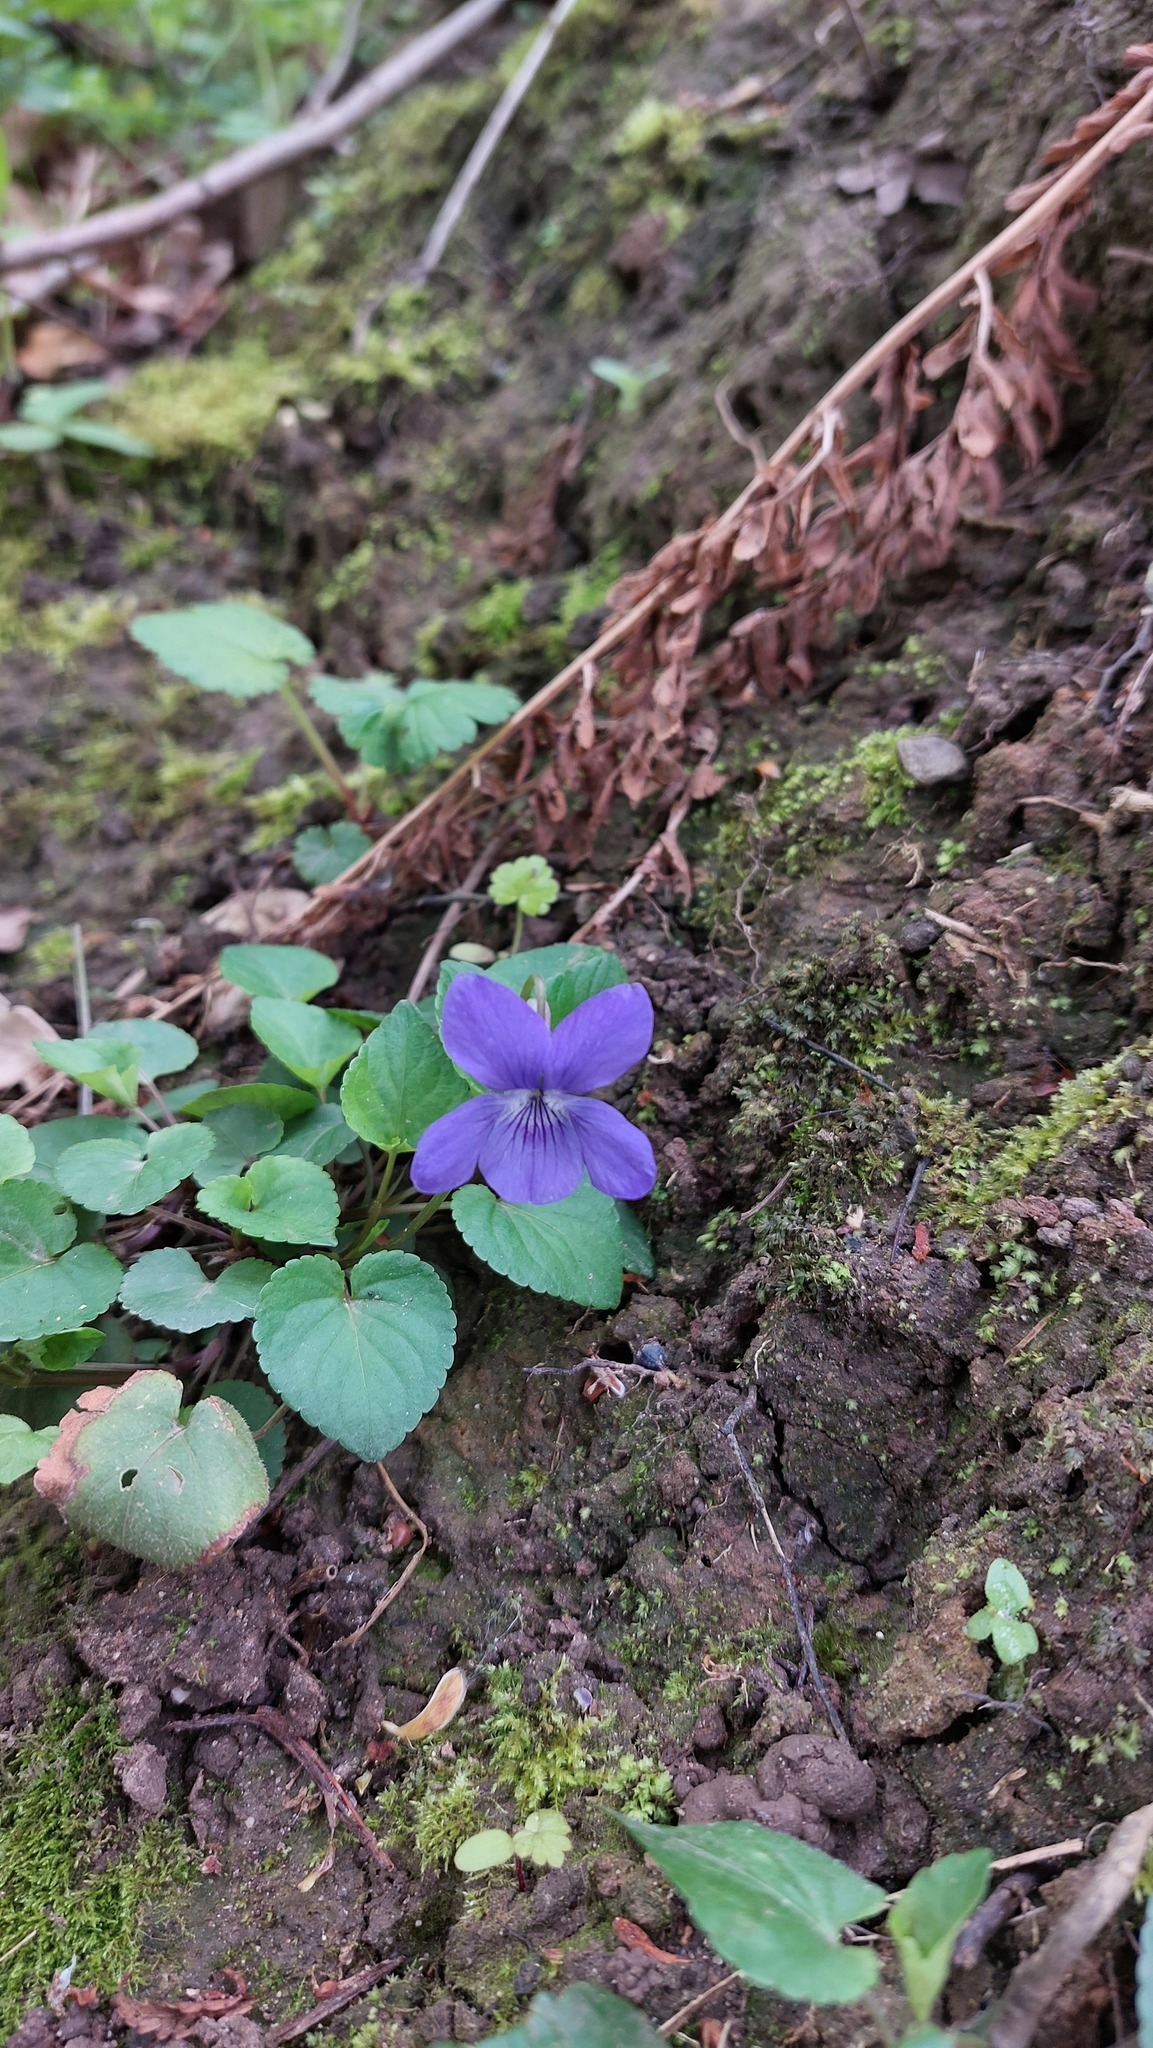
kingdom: Plantae
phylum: Tracheophyta
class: Magnoliopsida
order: Malpighiales
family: Violaceae
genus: Viola
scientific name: Viola riviniana
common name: Common dog-violet
